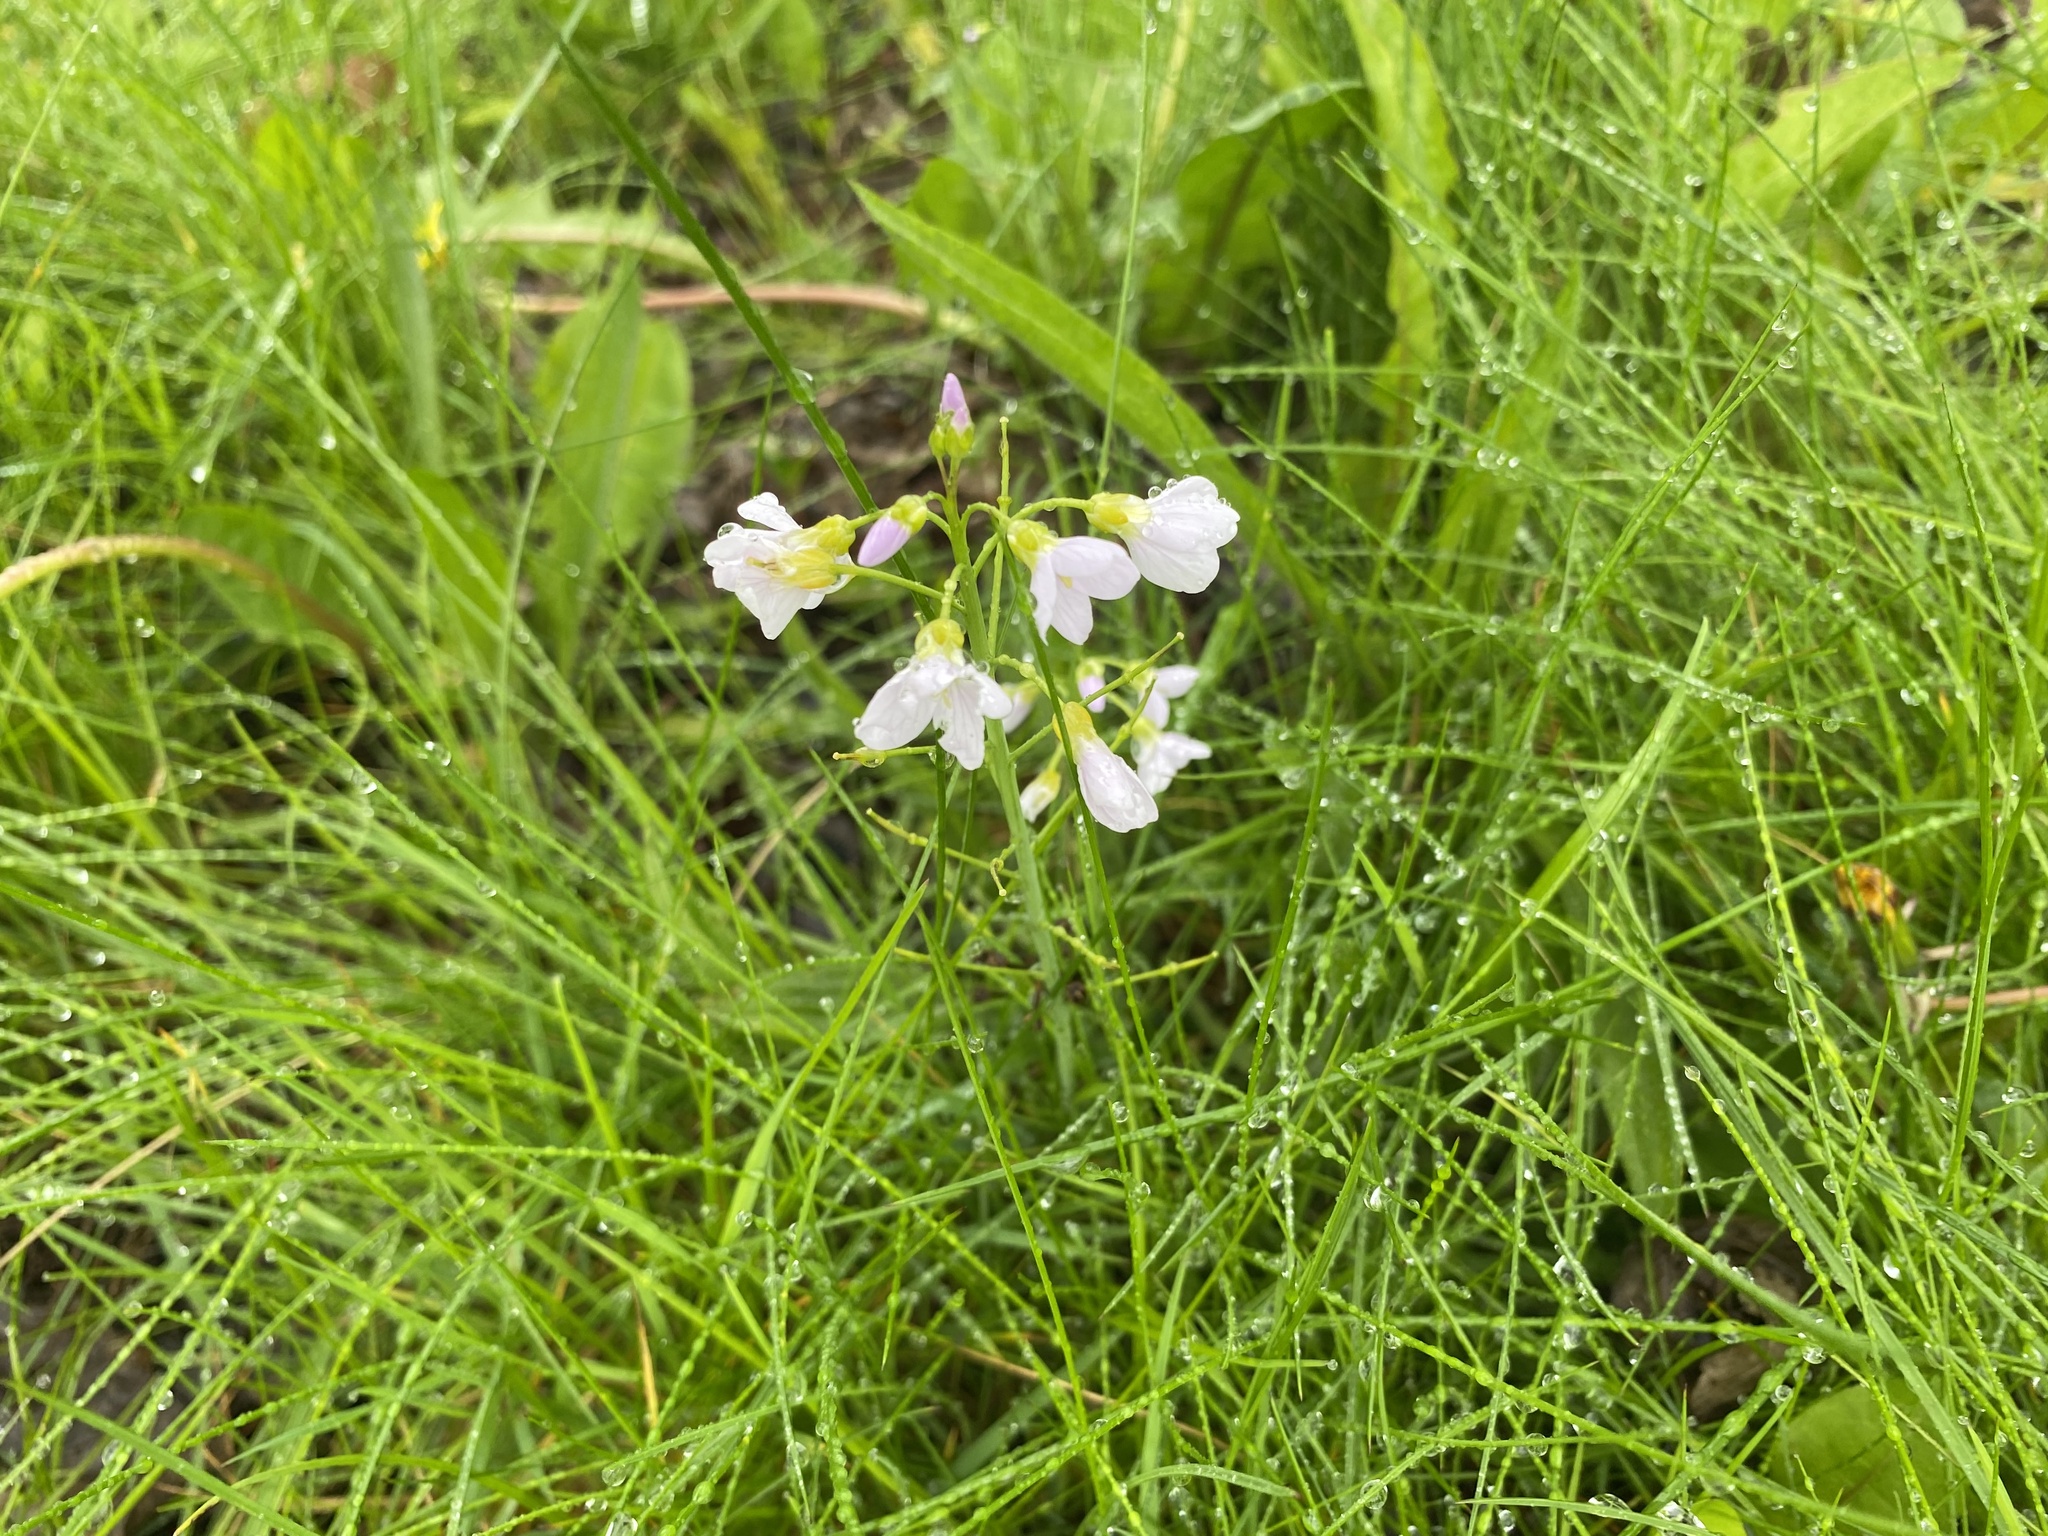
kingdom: Plantae
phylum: Tracheophyta
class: Magnoliopsida
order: Brassicales
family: Brassicaceae
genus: Cardamine
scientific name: Cardamine pratensis
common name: Cuckoo flower
